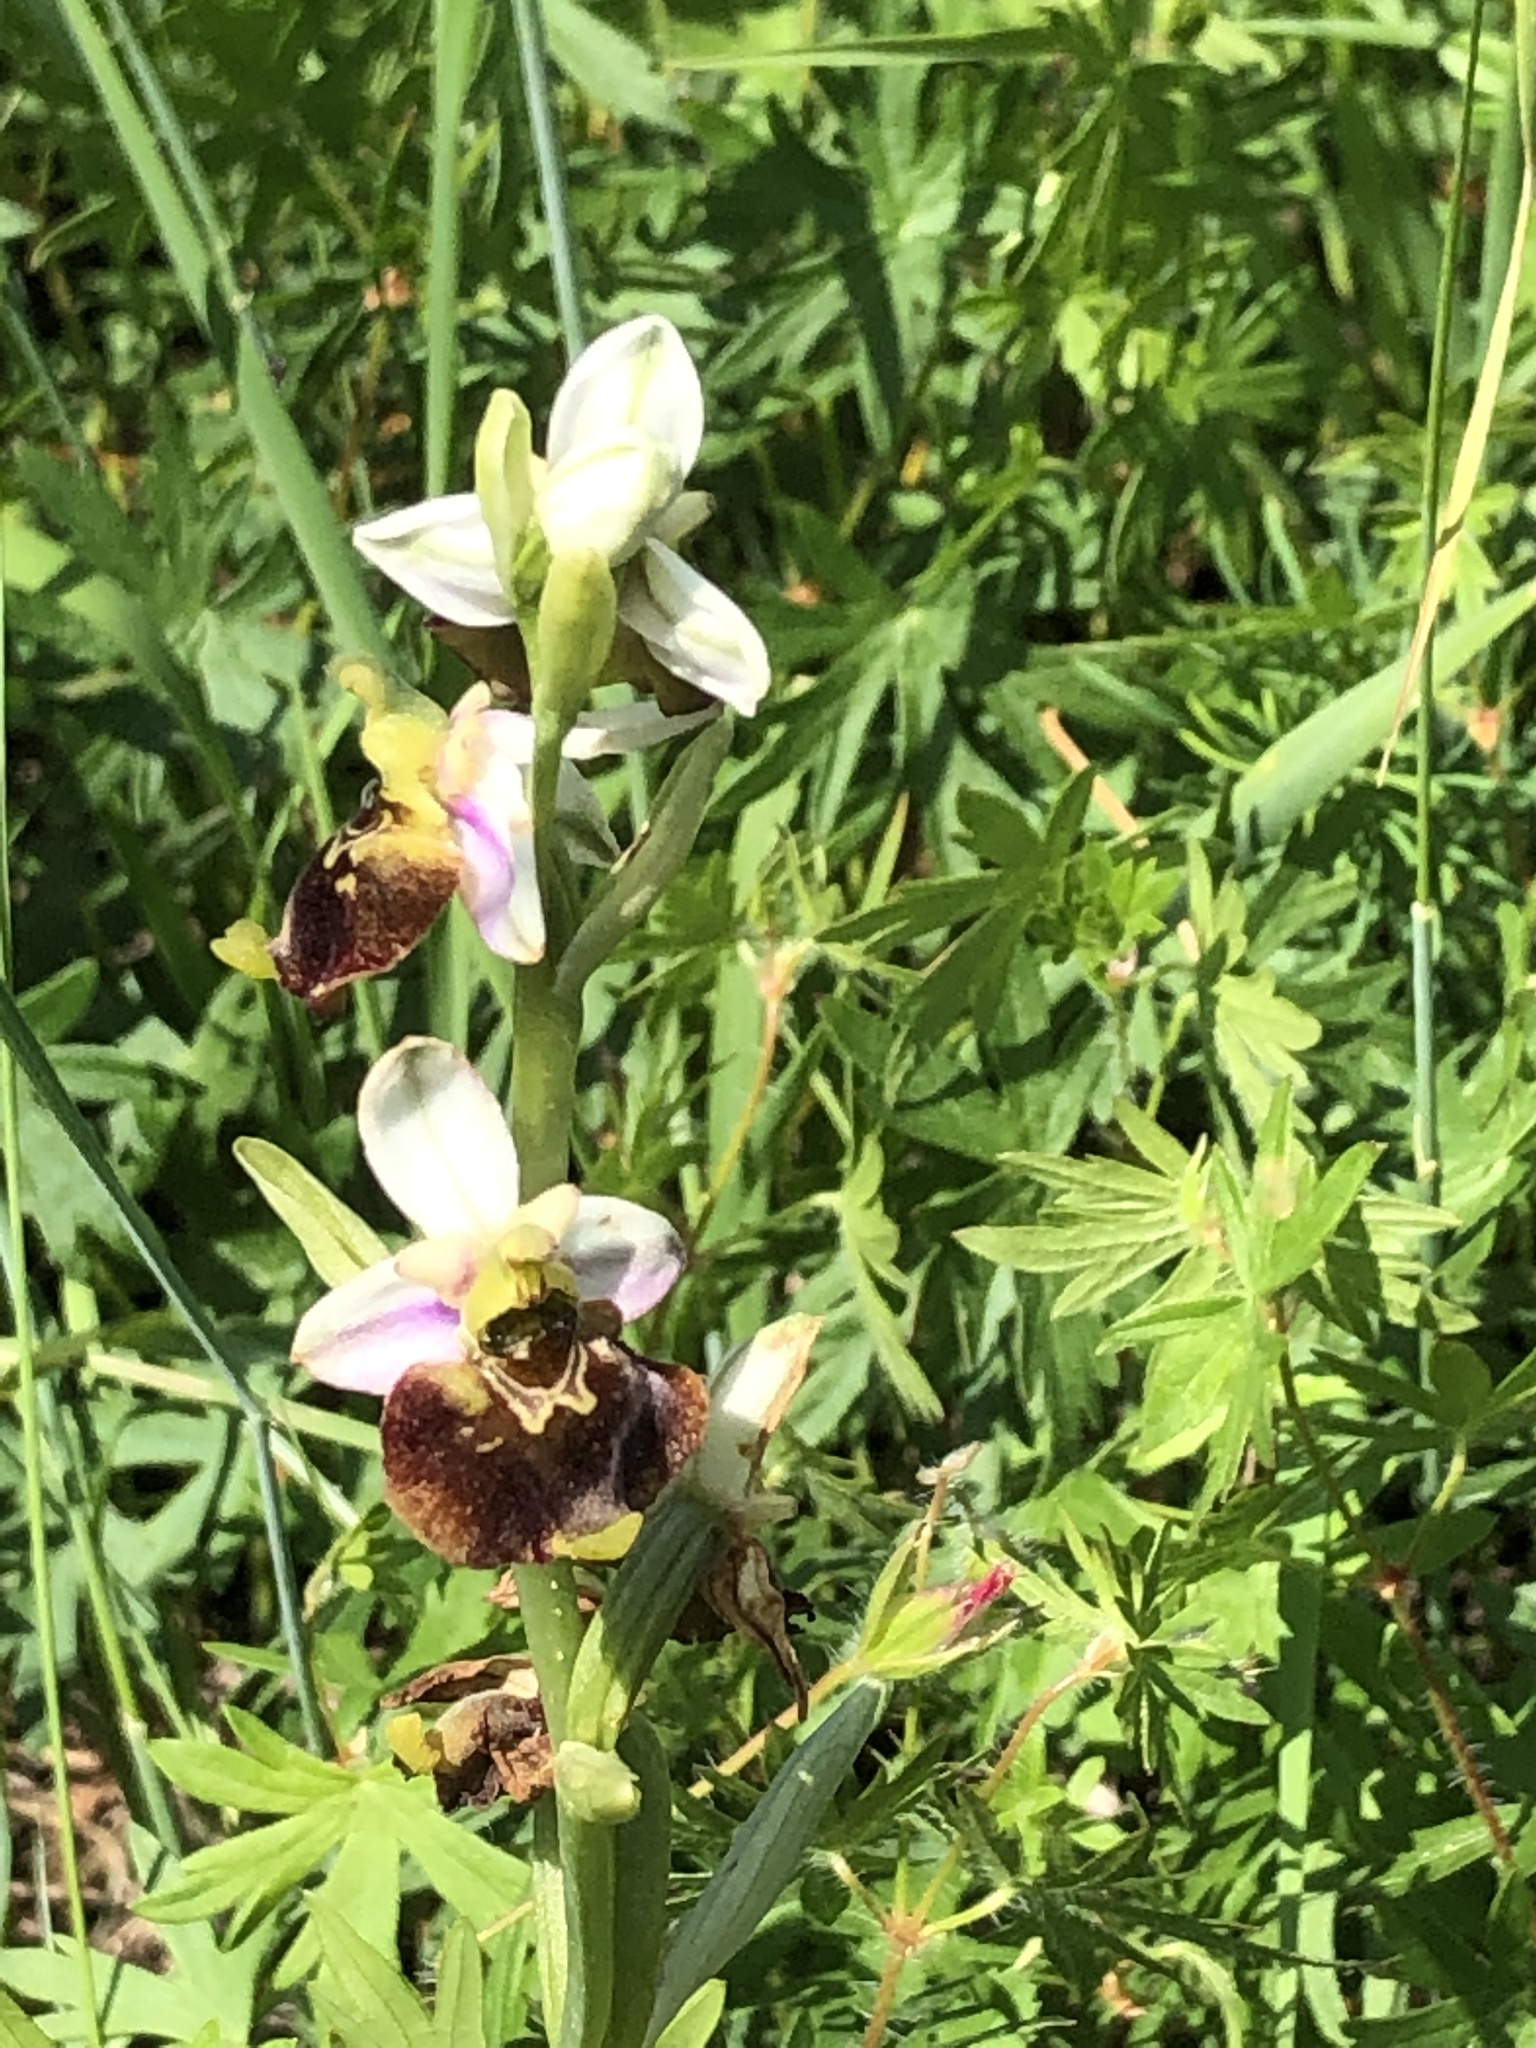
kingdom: Plantae
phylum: Tracheophyta
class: Liliopsida
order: Asparagales
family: Orchidaceae
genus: Ophrys
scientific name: Ophrys holosericea
